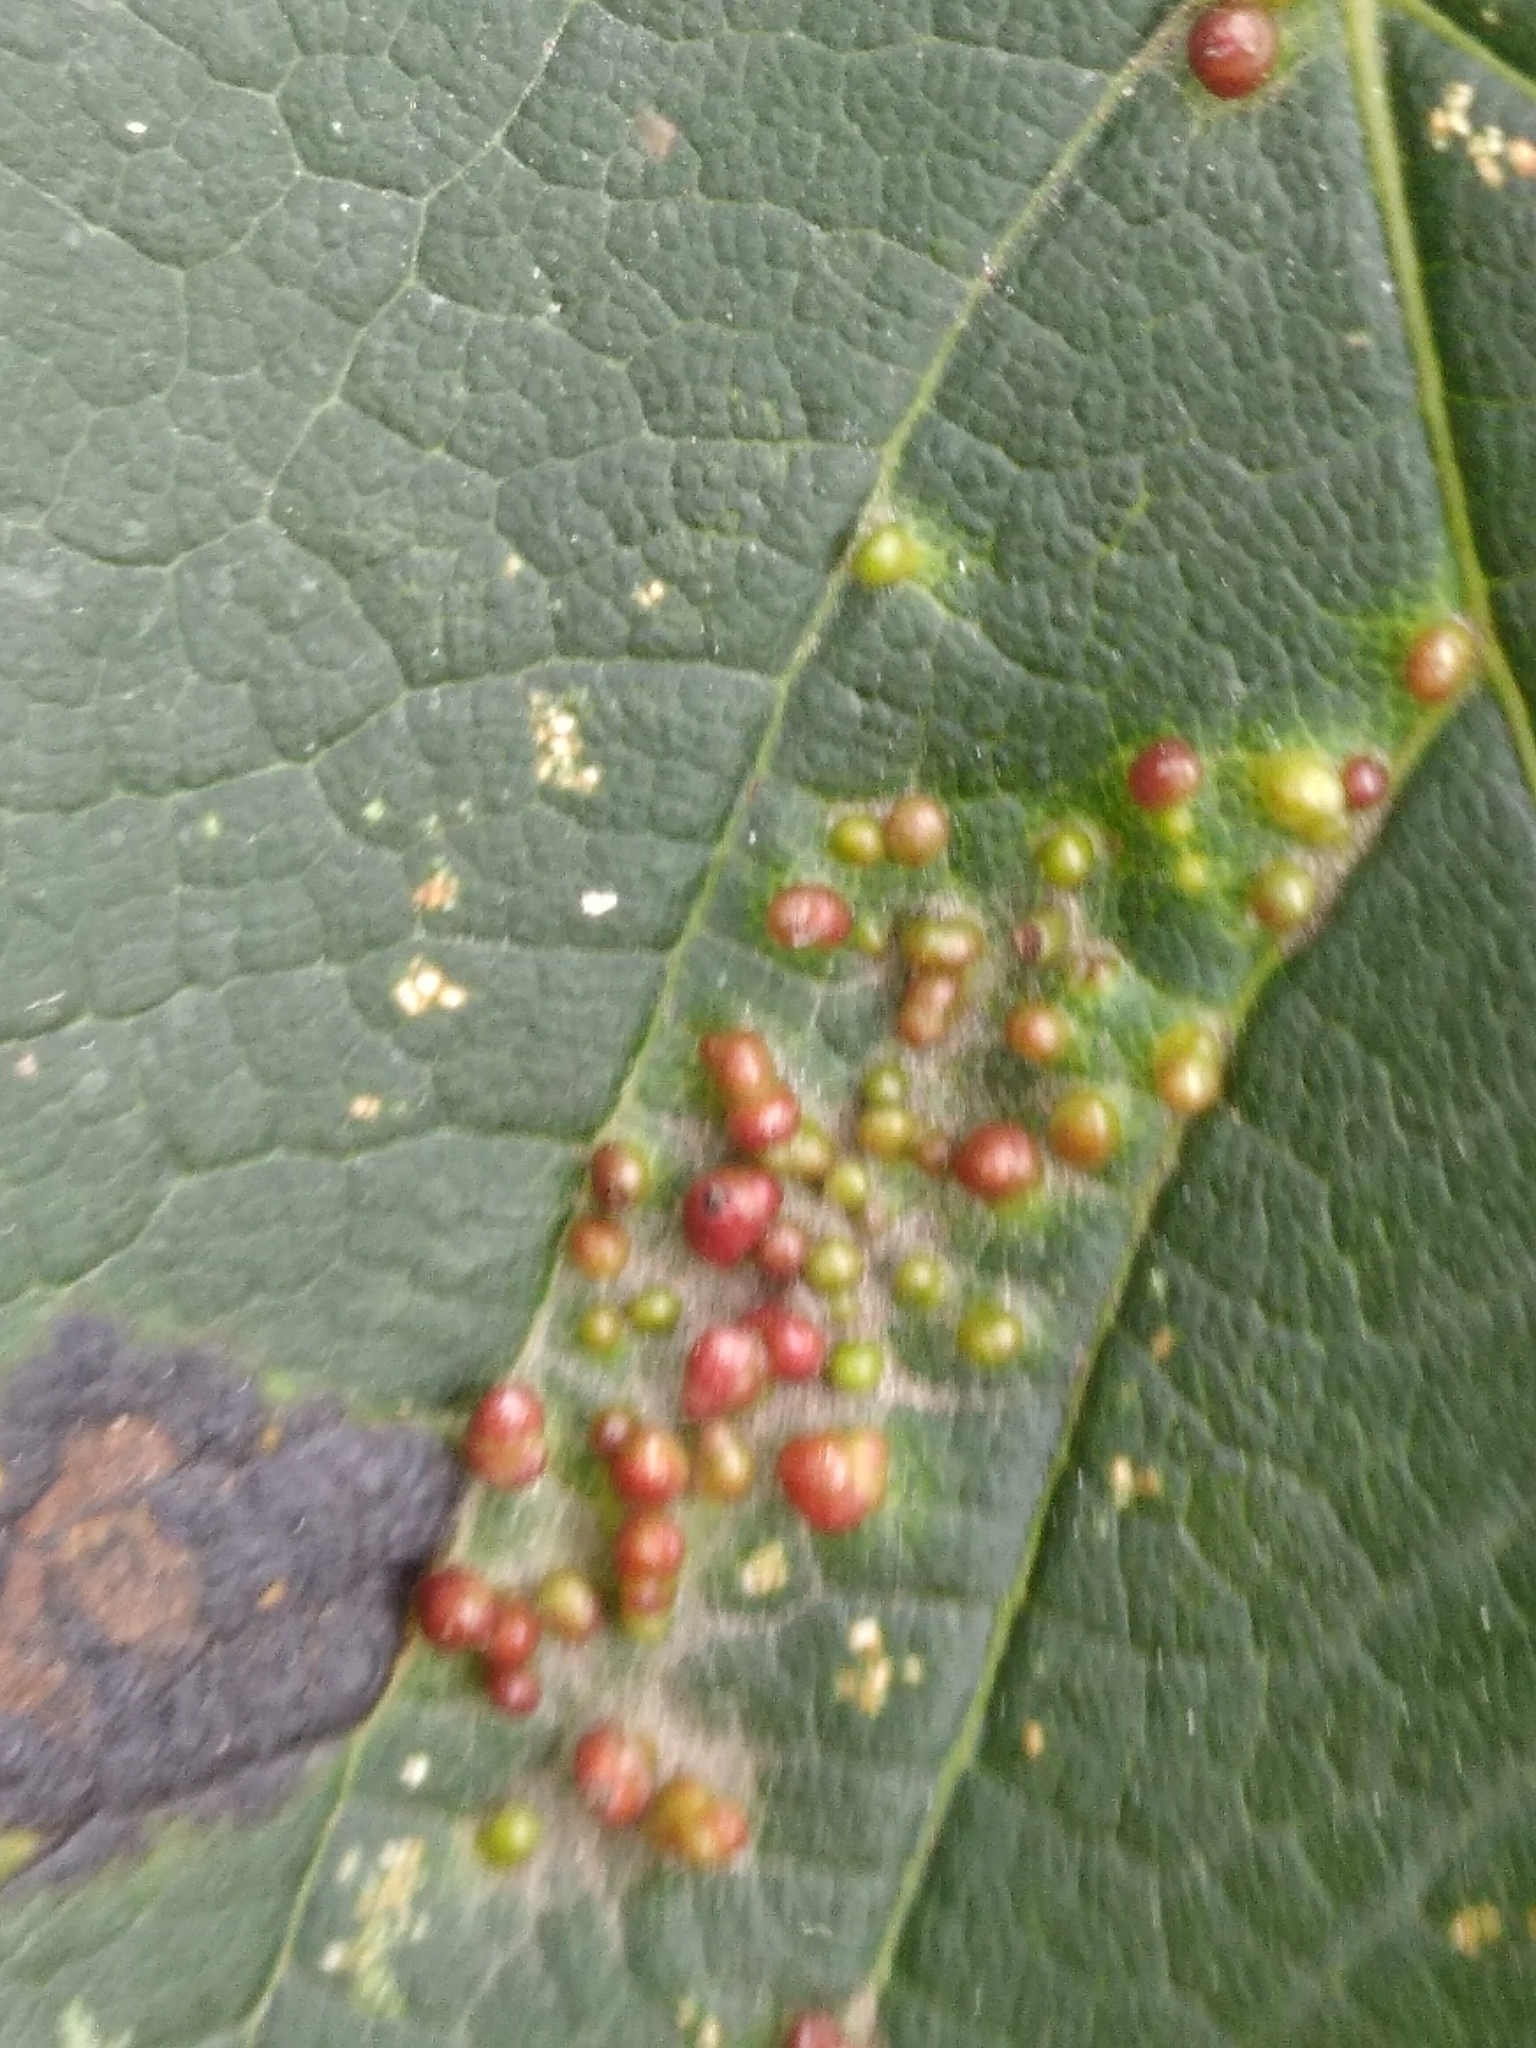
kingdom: Animalia
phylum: Arthropoda
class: Arachnida
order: Trombidiformes
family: Eriophyidae
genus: Aceria
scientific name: Aceria cephaloneus
